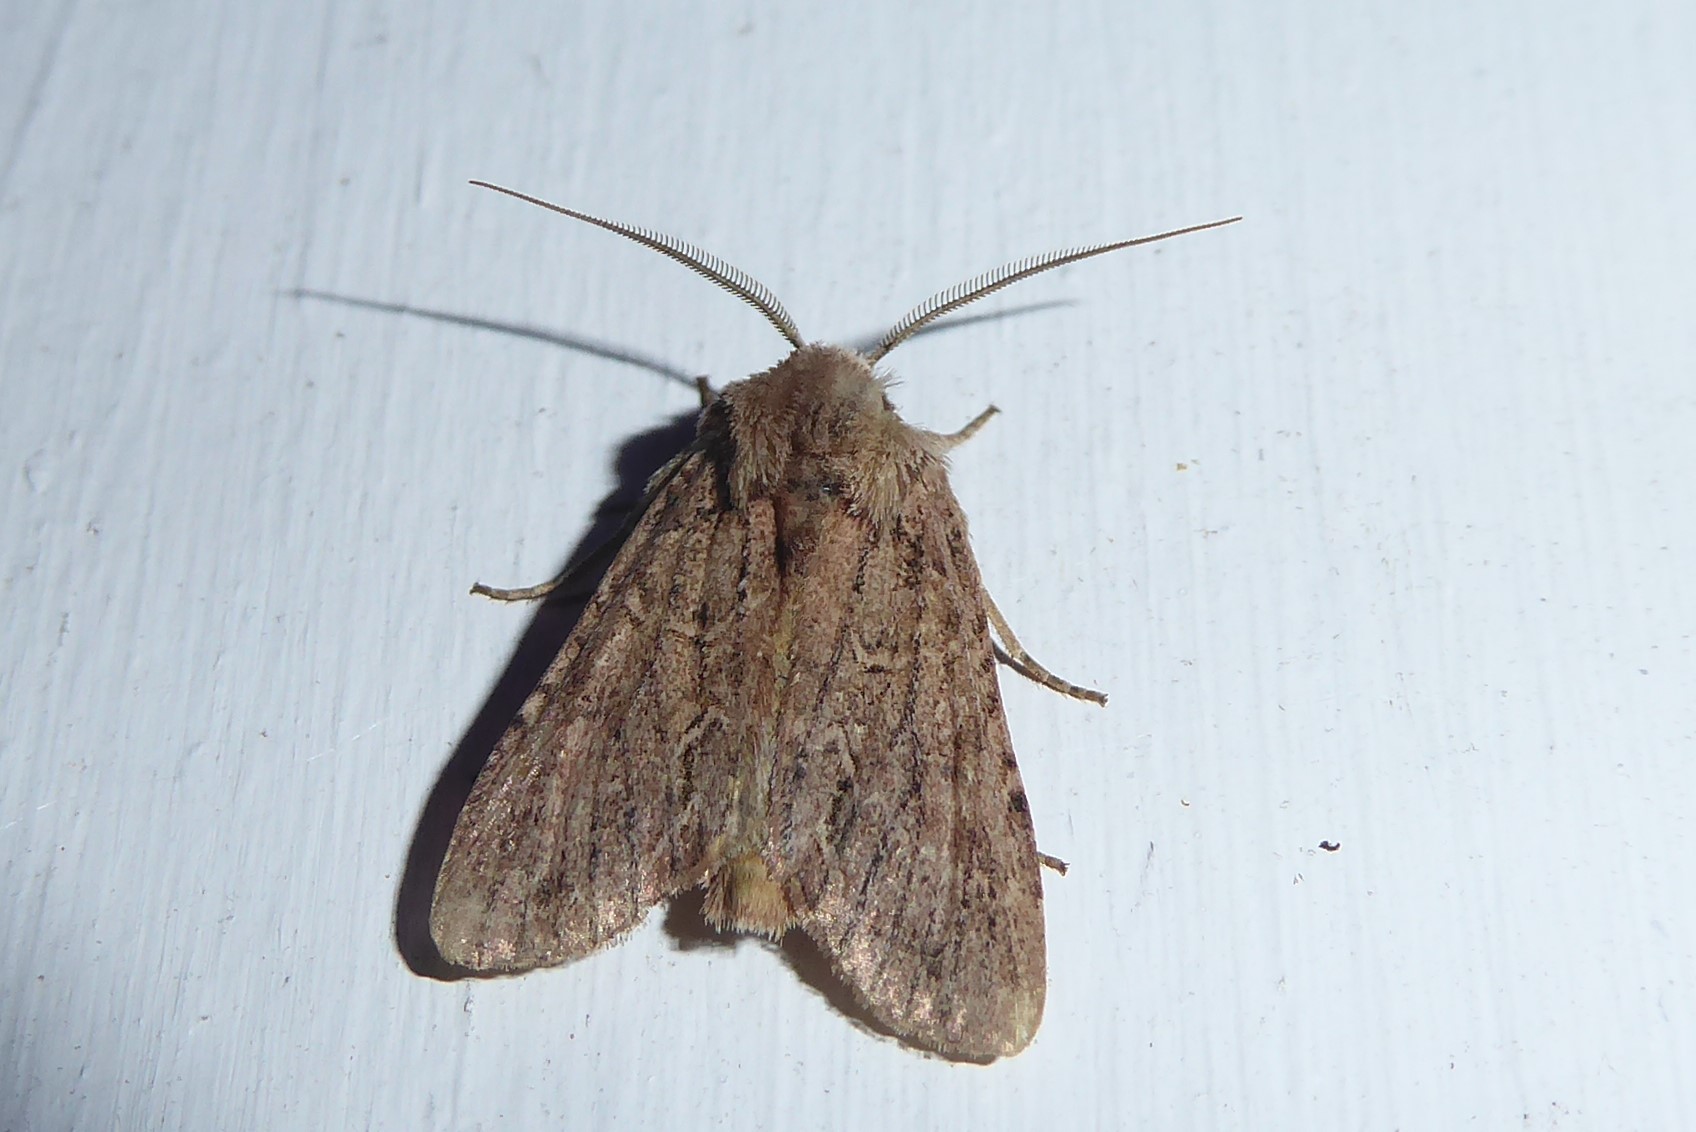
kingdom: Animalia
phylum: Arthropoda
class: Insecta
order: Lepidoptera
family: Noctuidae
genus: Ichneutica
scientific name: Ichneutica
